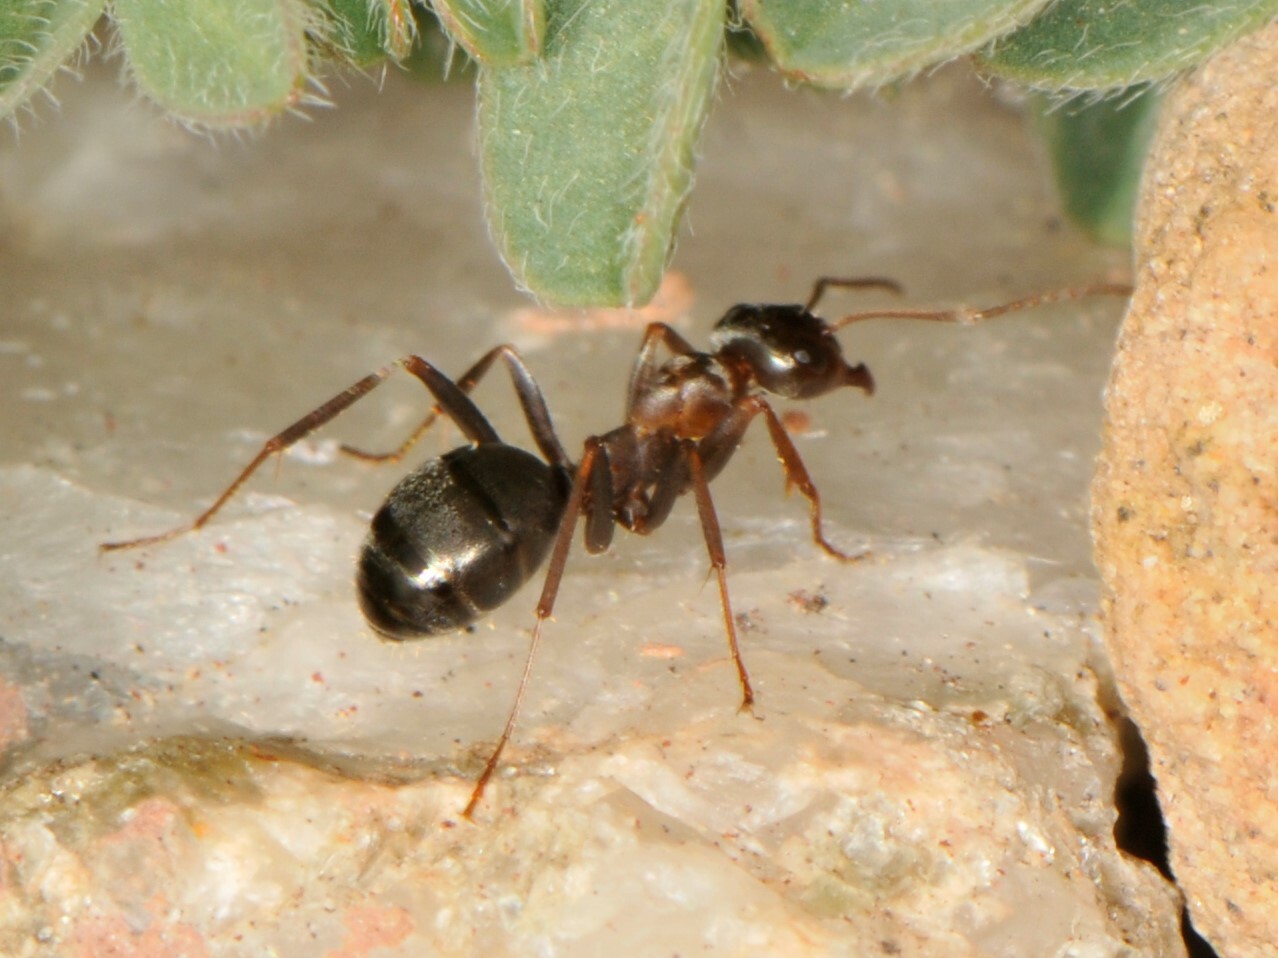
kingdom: Animalia
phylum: Arthropoda
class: Insecta
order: Hymenoptera
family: Formicidae
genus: Formica
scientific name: Formica
